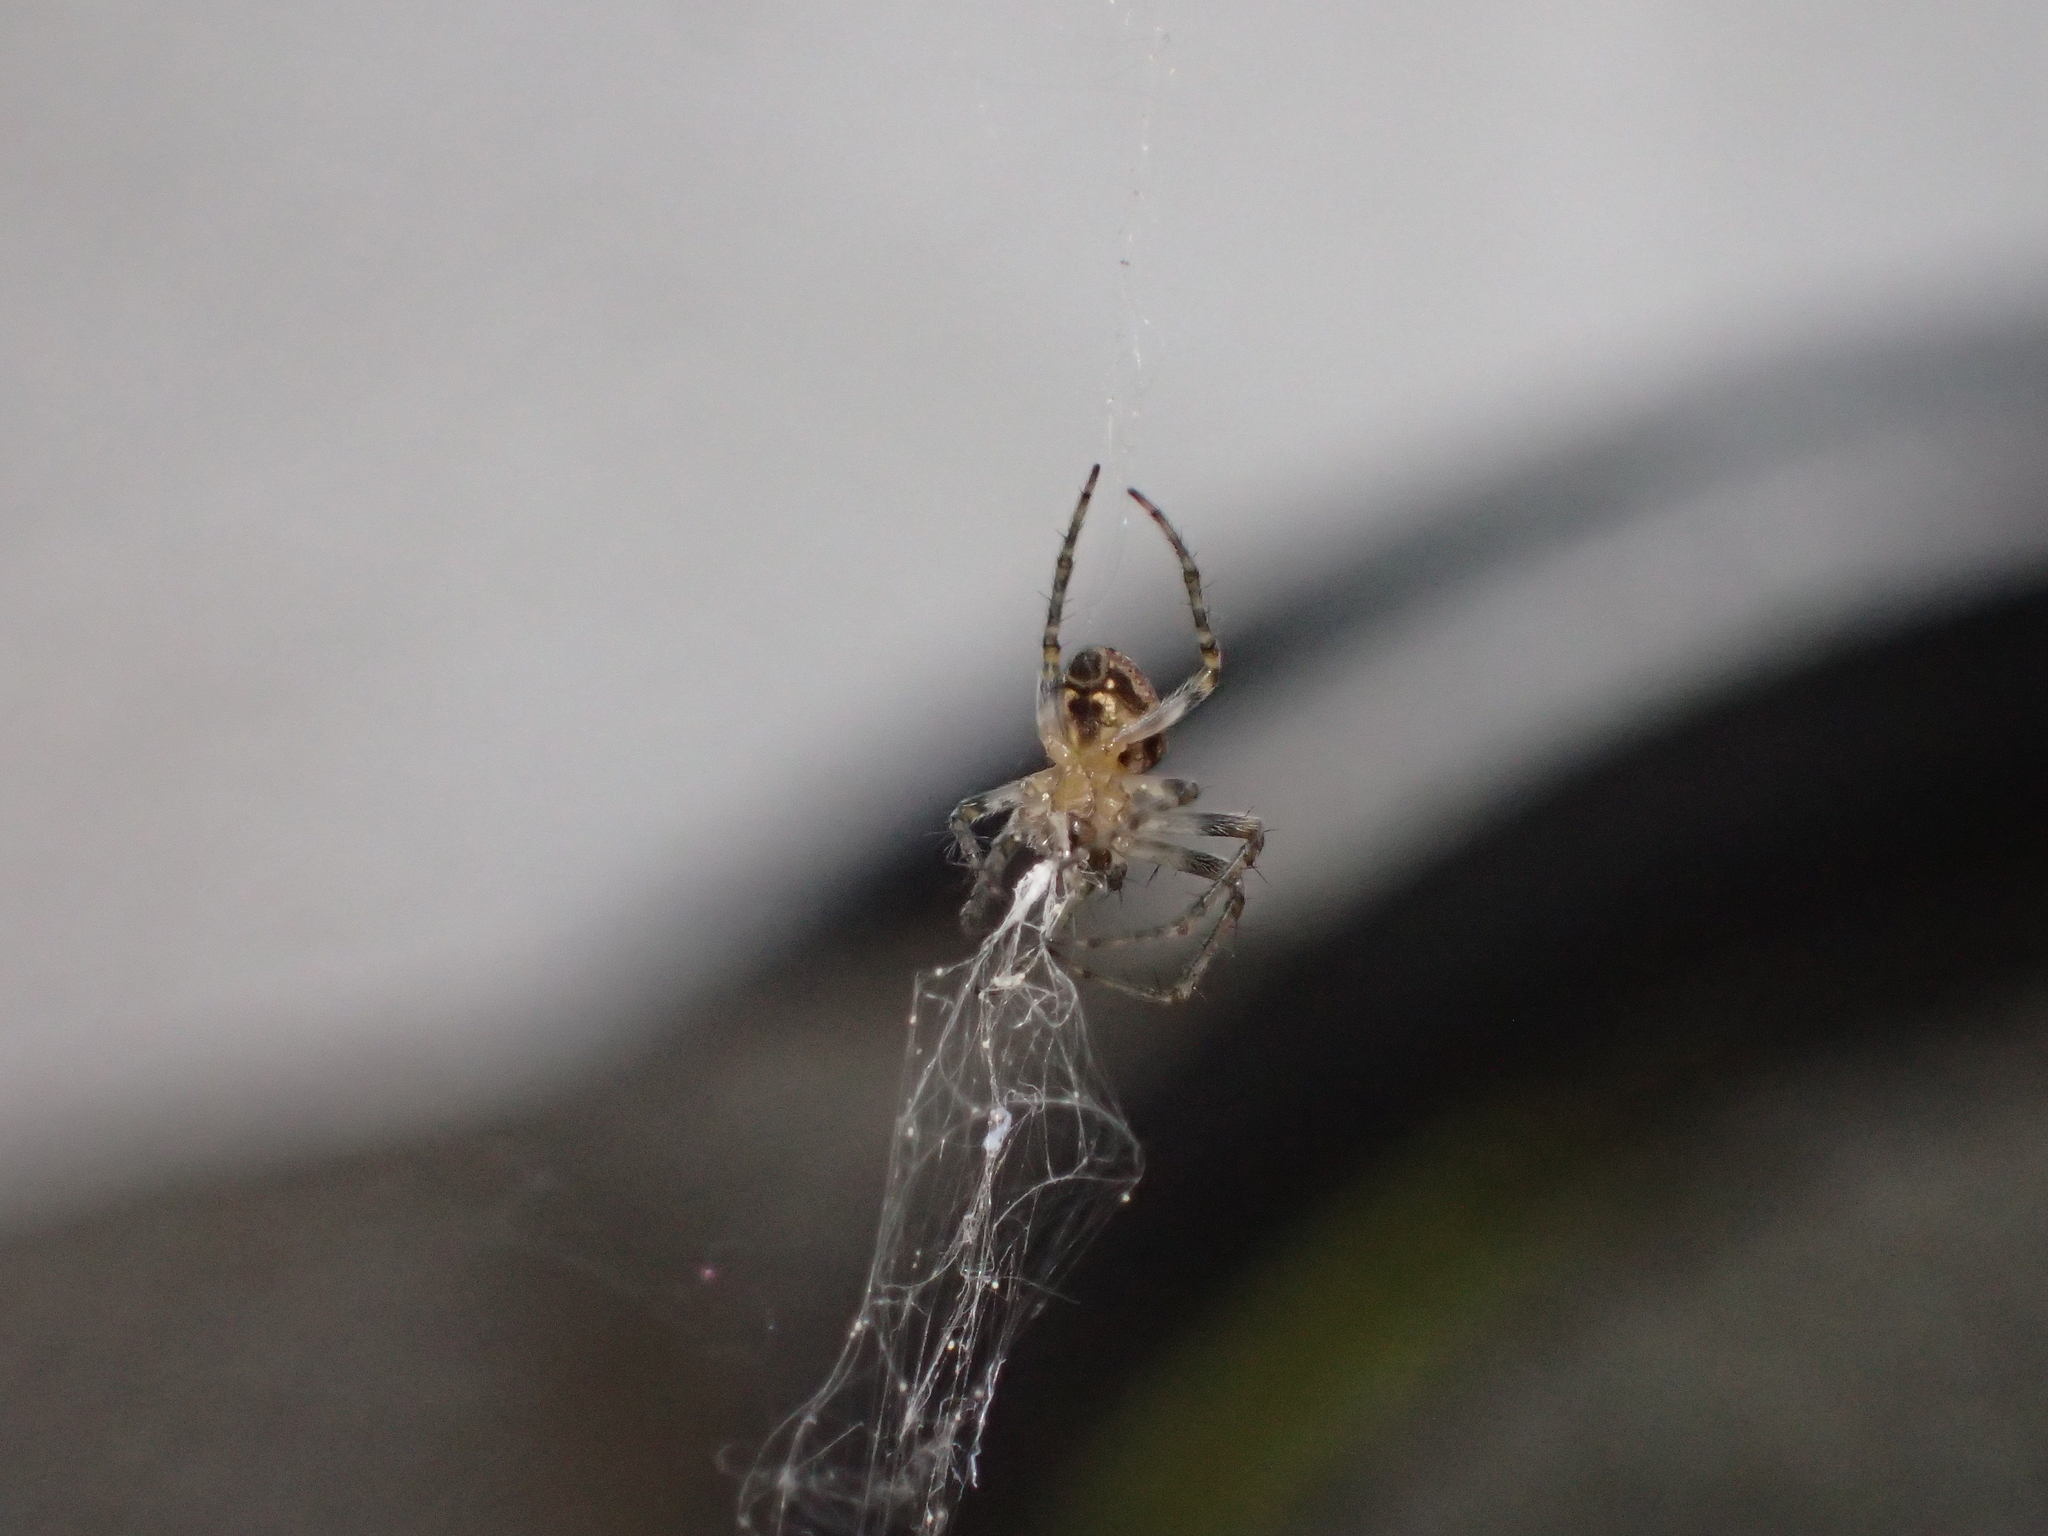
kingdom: Animalia
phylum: Arthropoda
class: Arachnida
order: Araneae
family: Araneidae
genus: Zilla
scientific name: Zilla diodia
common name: Zilla diodia
